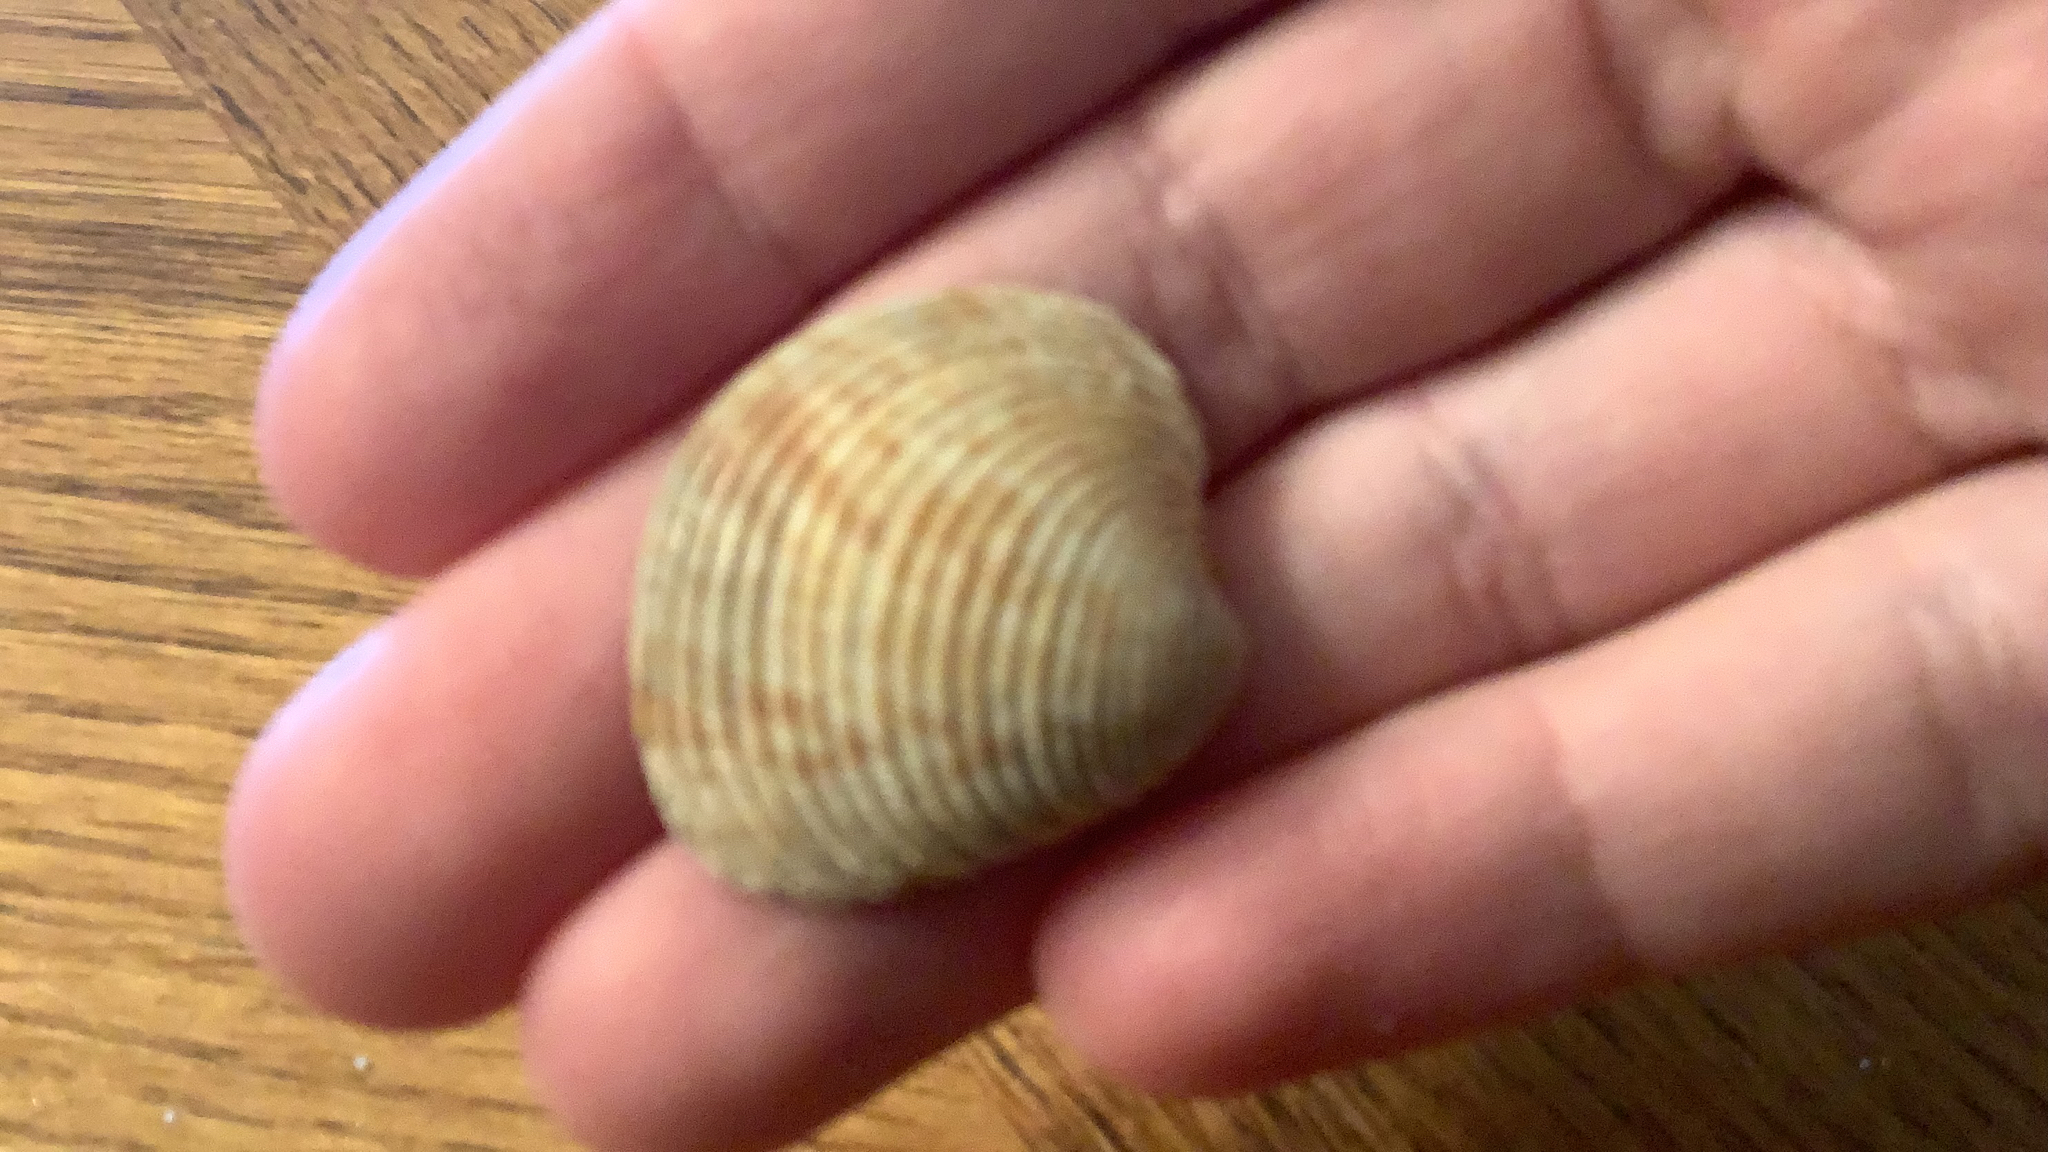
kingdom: Animalia
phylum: Mollusca
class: Bivalvia
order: Venerida
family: Veneridae
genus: Chionopsis
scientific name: Chionopsis intapurpurea
